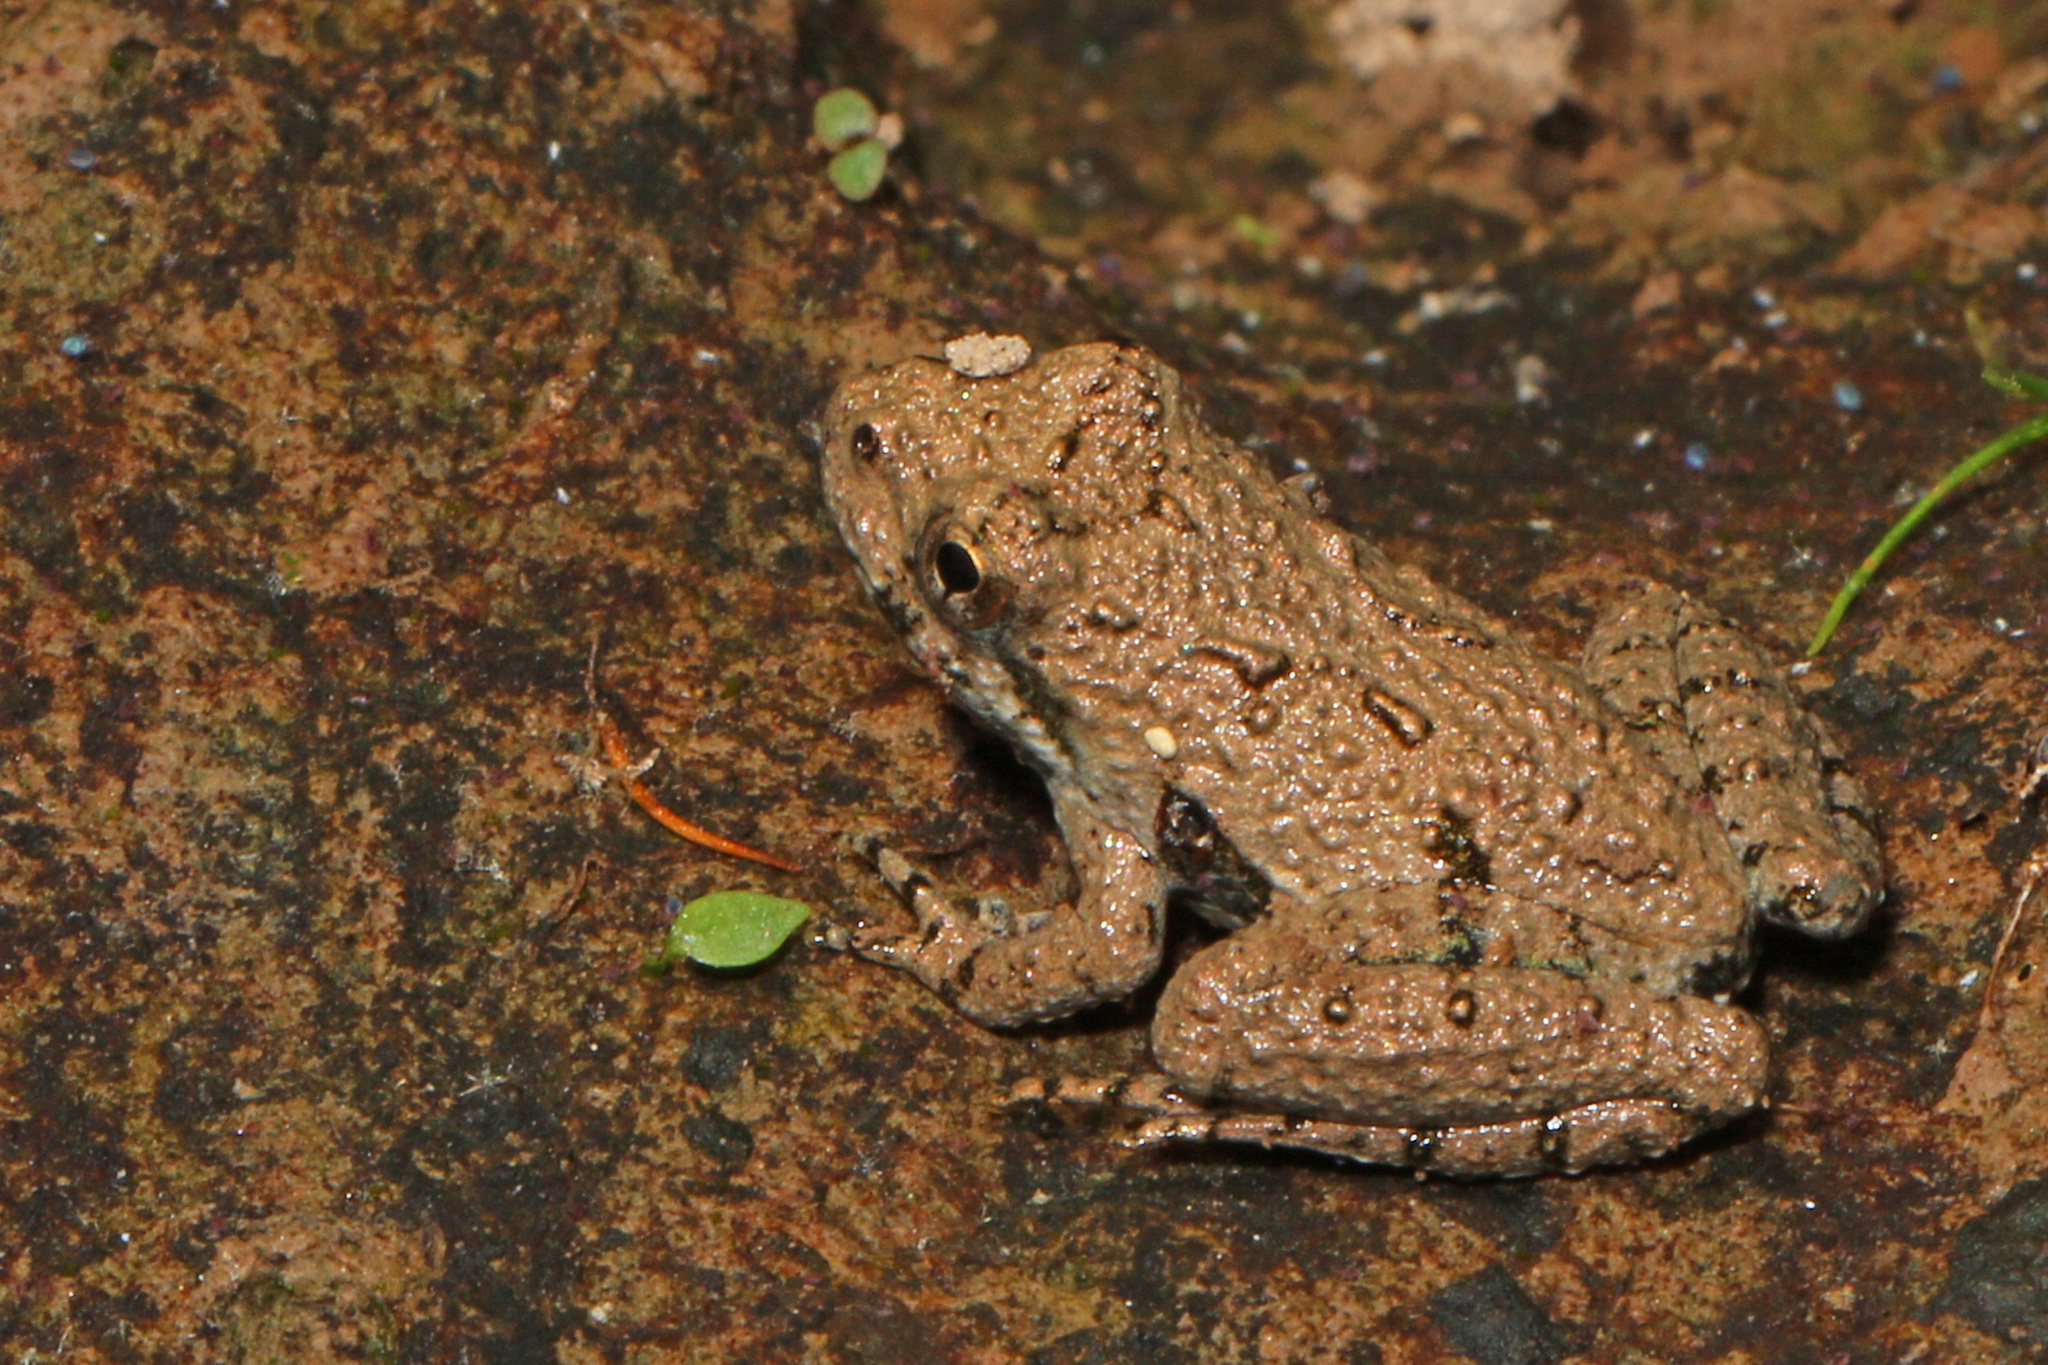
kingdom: Animalia
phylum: Chordata
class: Amphibia
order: Anura
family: Hylidae
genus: Acris
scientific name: Acris crepitans
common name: Northern cricket frog
